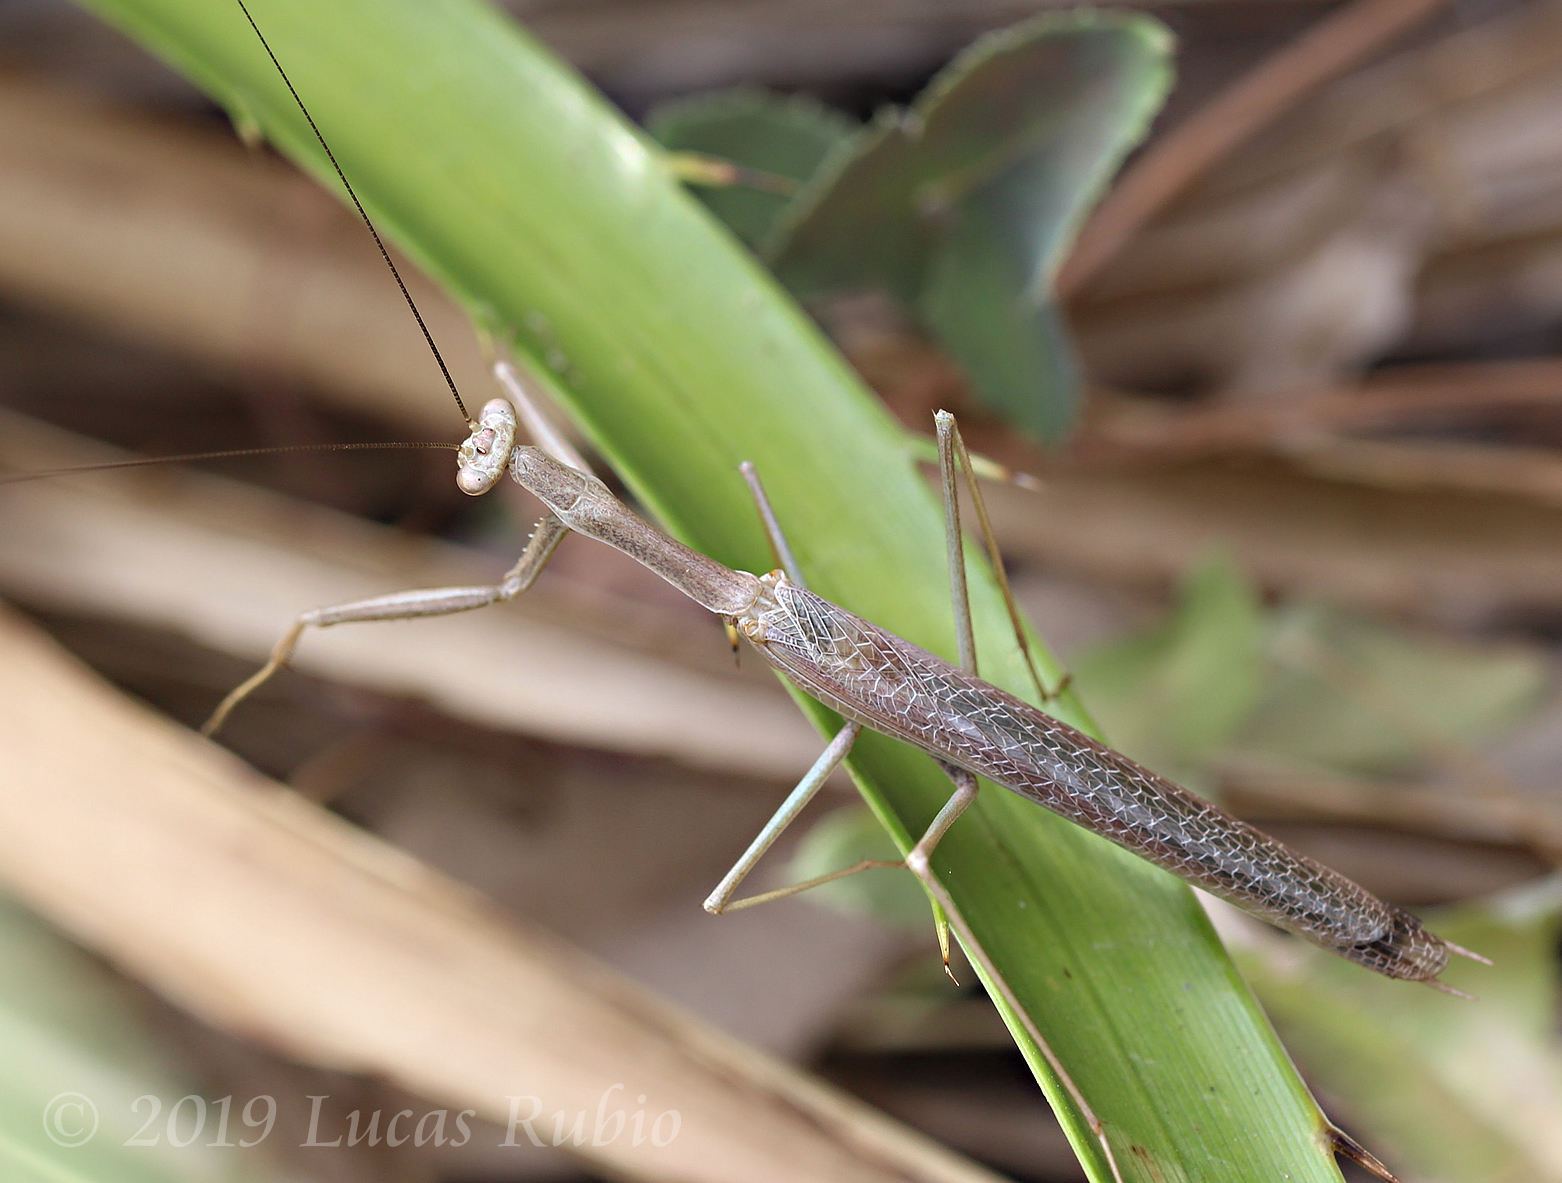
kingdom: Animalia
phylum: Arthropoda
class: Insecta
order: Mantodea
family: Coptopterygidae
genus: Coptopteryx
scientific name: Coptopteryx gayi
